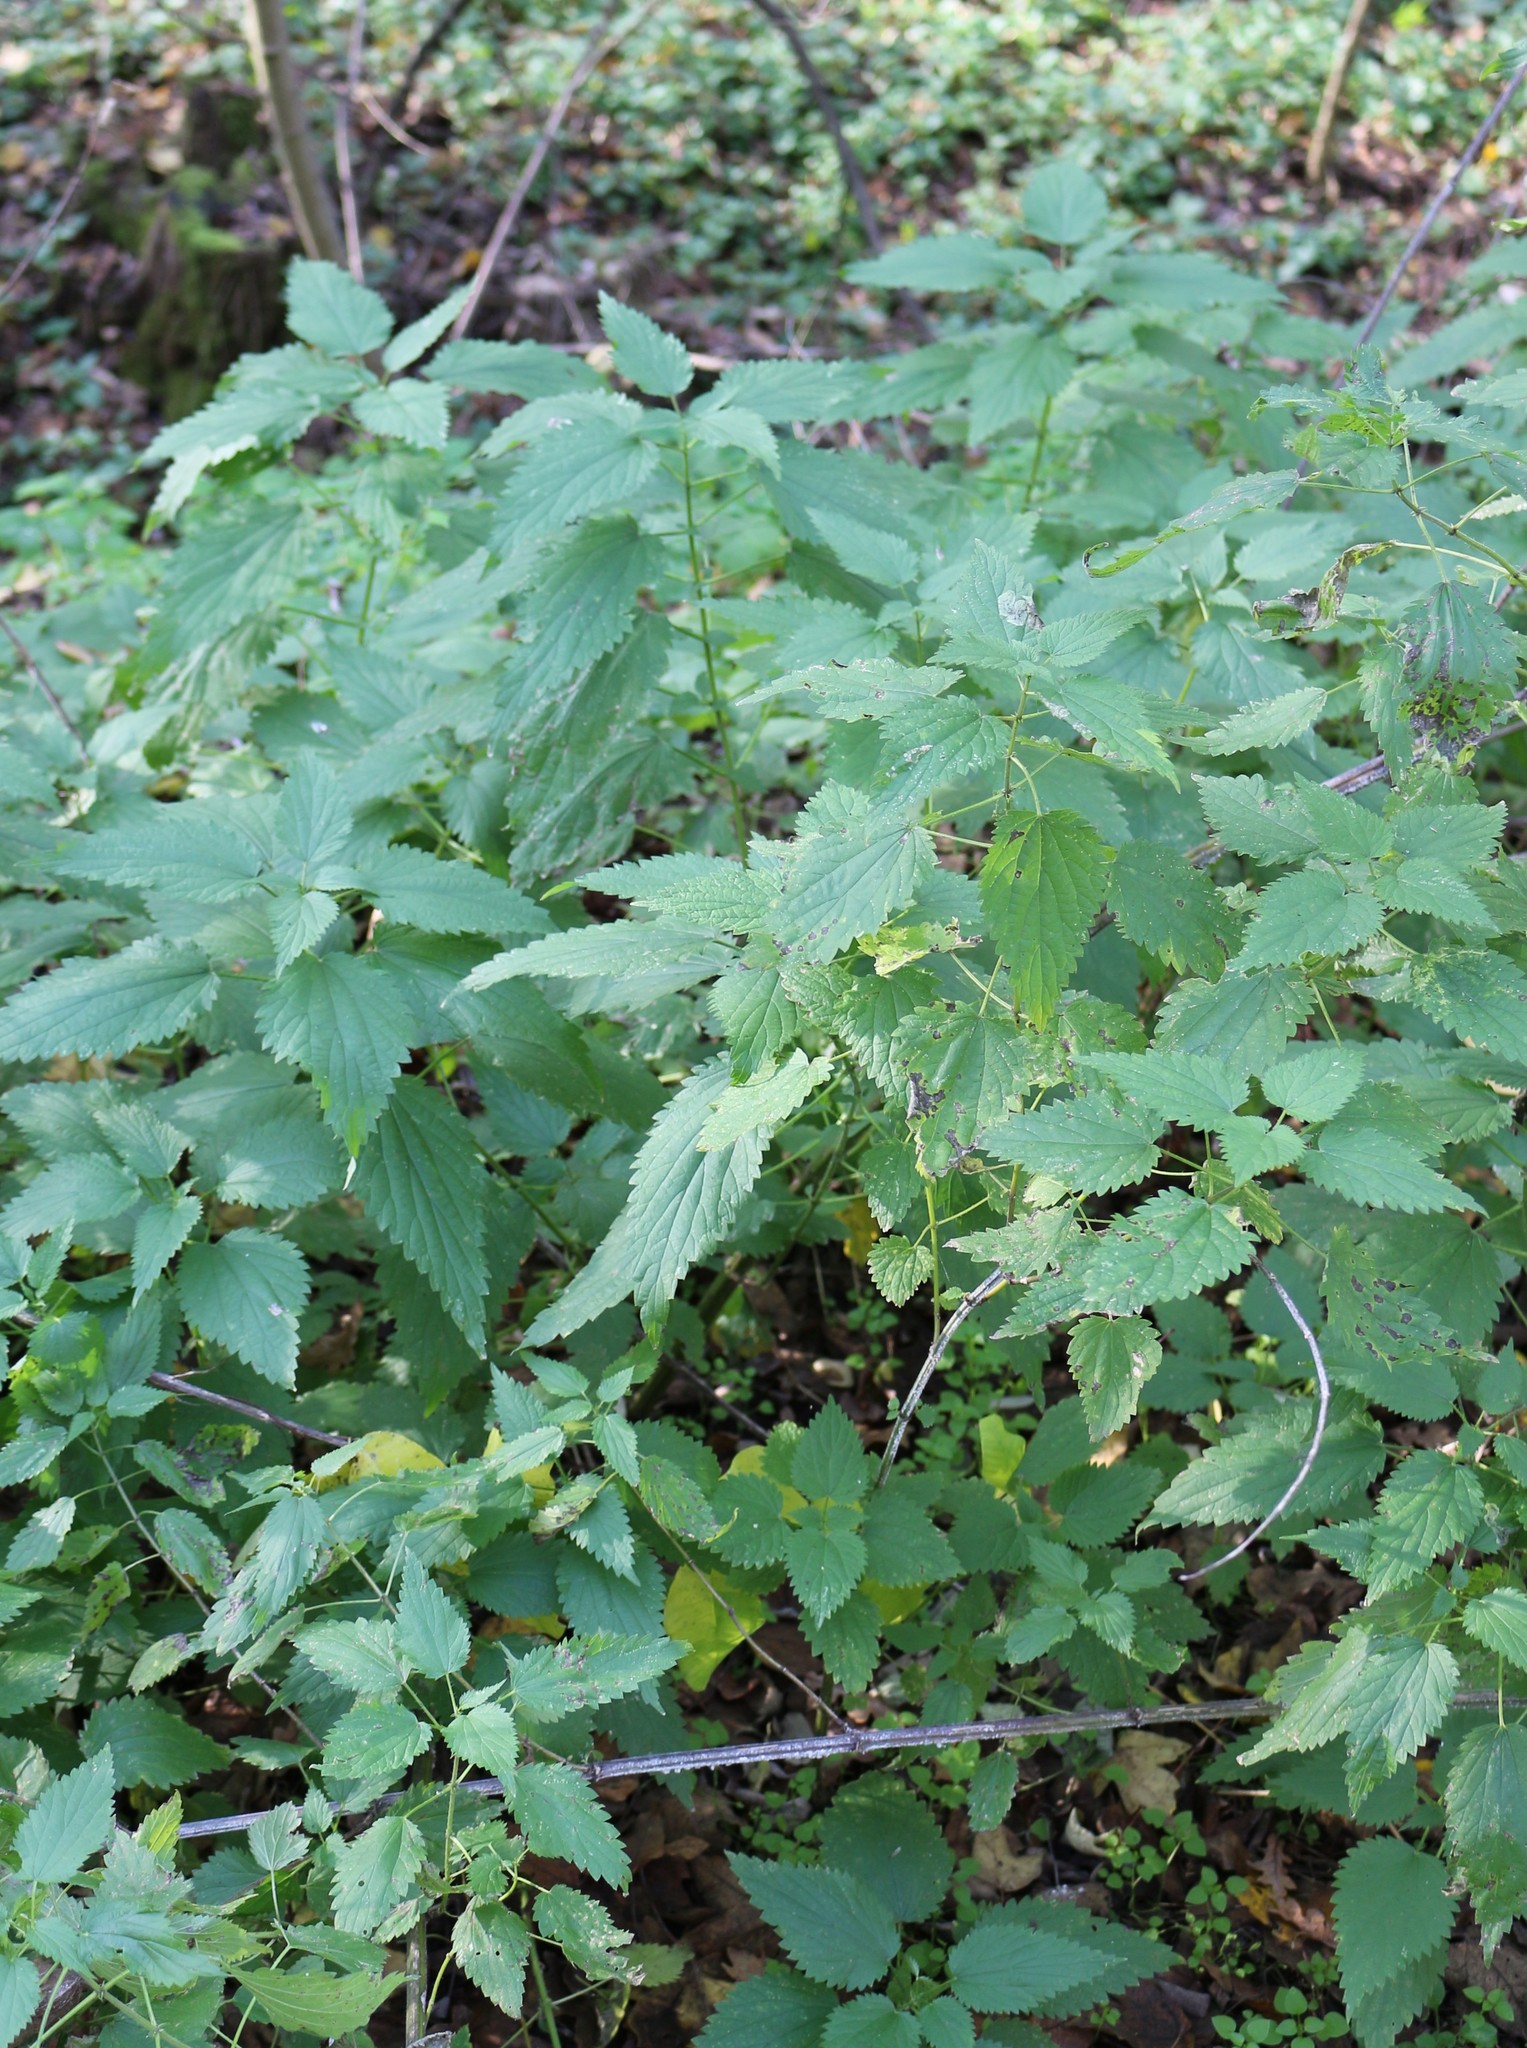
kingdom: Plantae
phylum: Tracheophyta
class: Magnoliopsida
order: Rosales
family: Urticaceae
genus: Urtica
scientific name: Urtica dioica
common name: Common nettle
